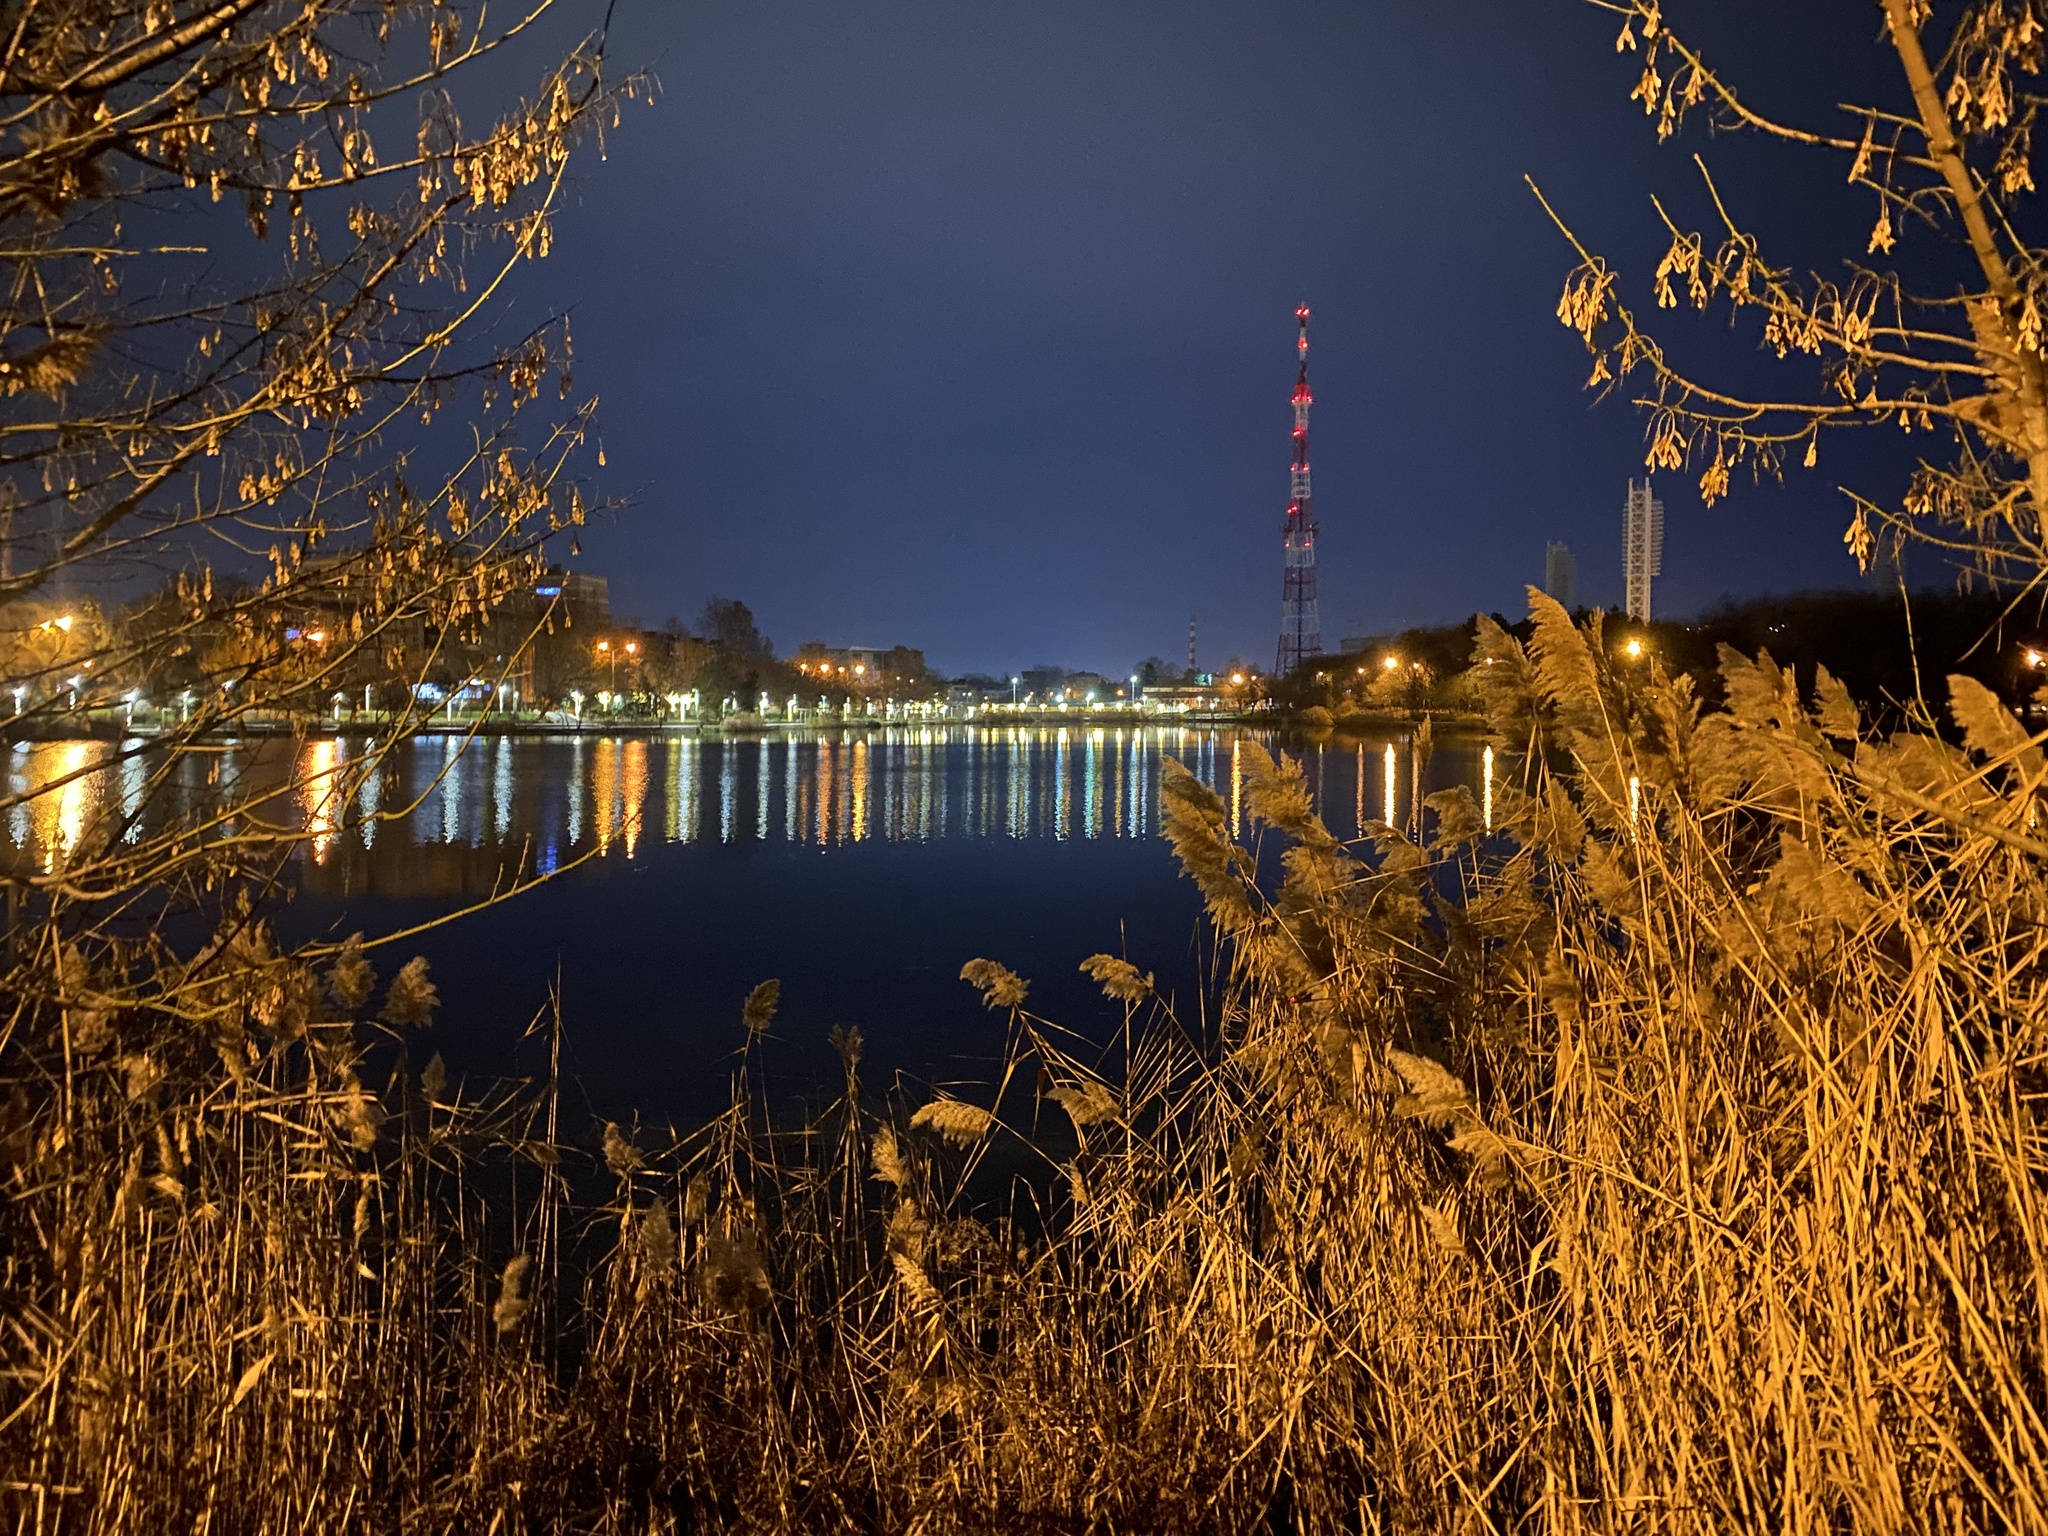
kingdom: Plantae
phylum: Tracheophyta
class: Liliopsida
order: Poales
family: Poaceae
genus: Phragmites
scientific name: Phragmites australis
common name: Common reed
